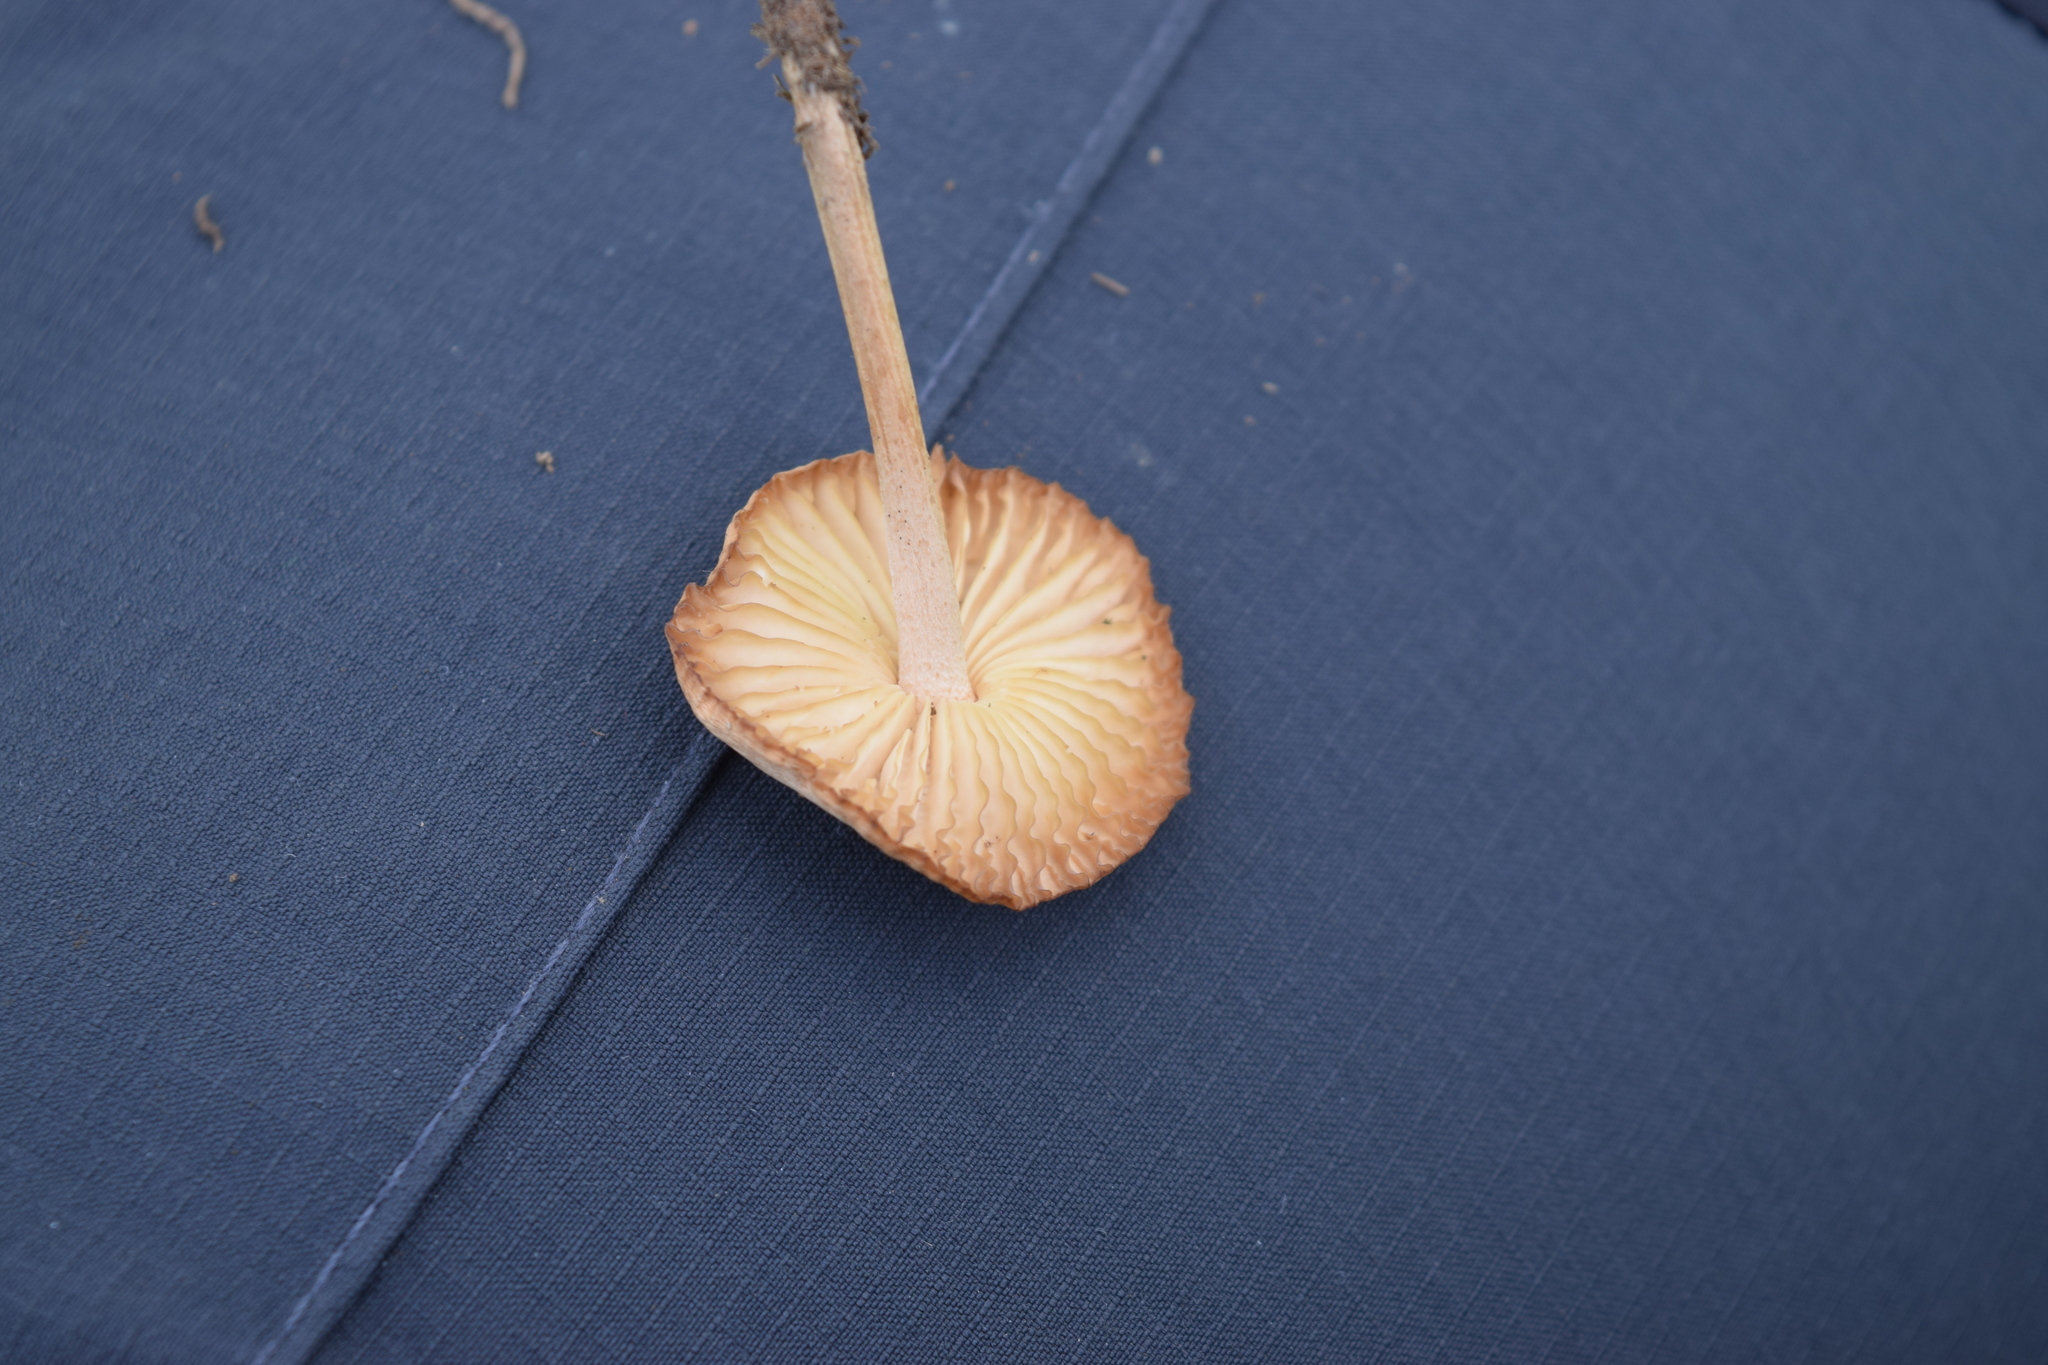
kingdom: Fungi
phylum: Basidiomycota
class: Agaricomycetes
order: Agaricales
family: Marasmiaceae
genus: Marasmius
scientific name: Marasmius oreades
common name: Fairy ring champignon
